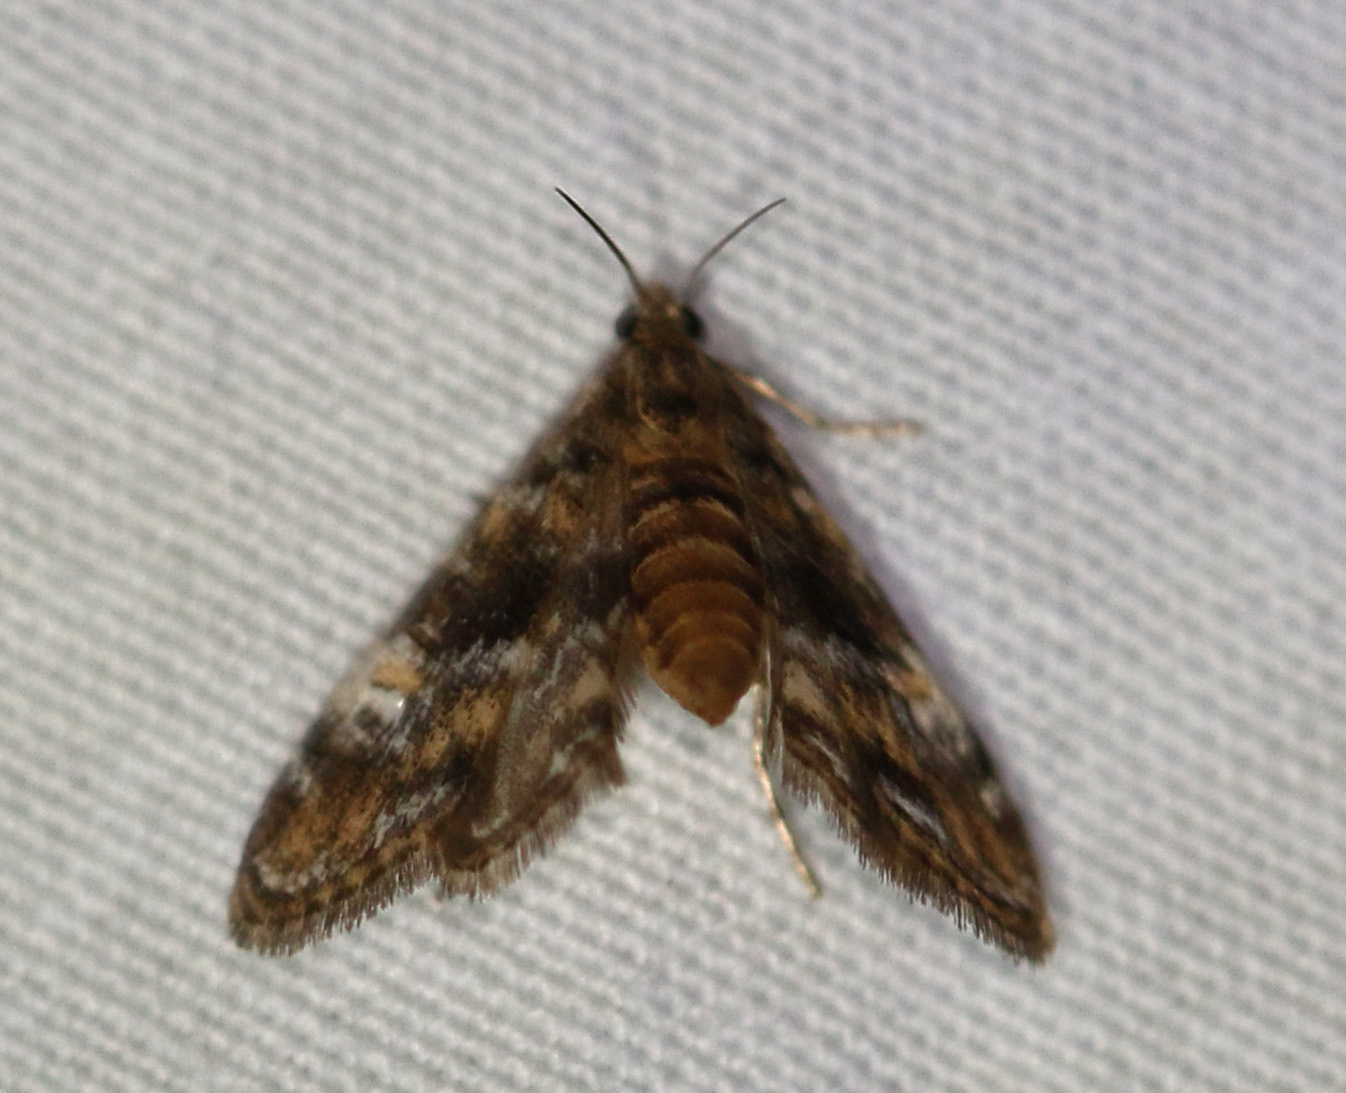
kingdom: Animalia
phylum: Arthropoda
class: Insecta
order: Lepidoptera
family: Crambidae
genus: Elophila
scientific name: Elophila obliteralis
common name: Waterlily leafcutter moth
